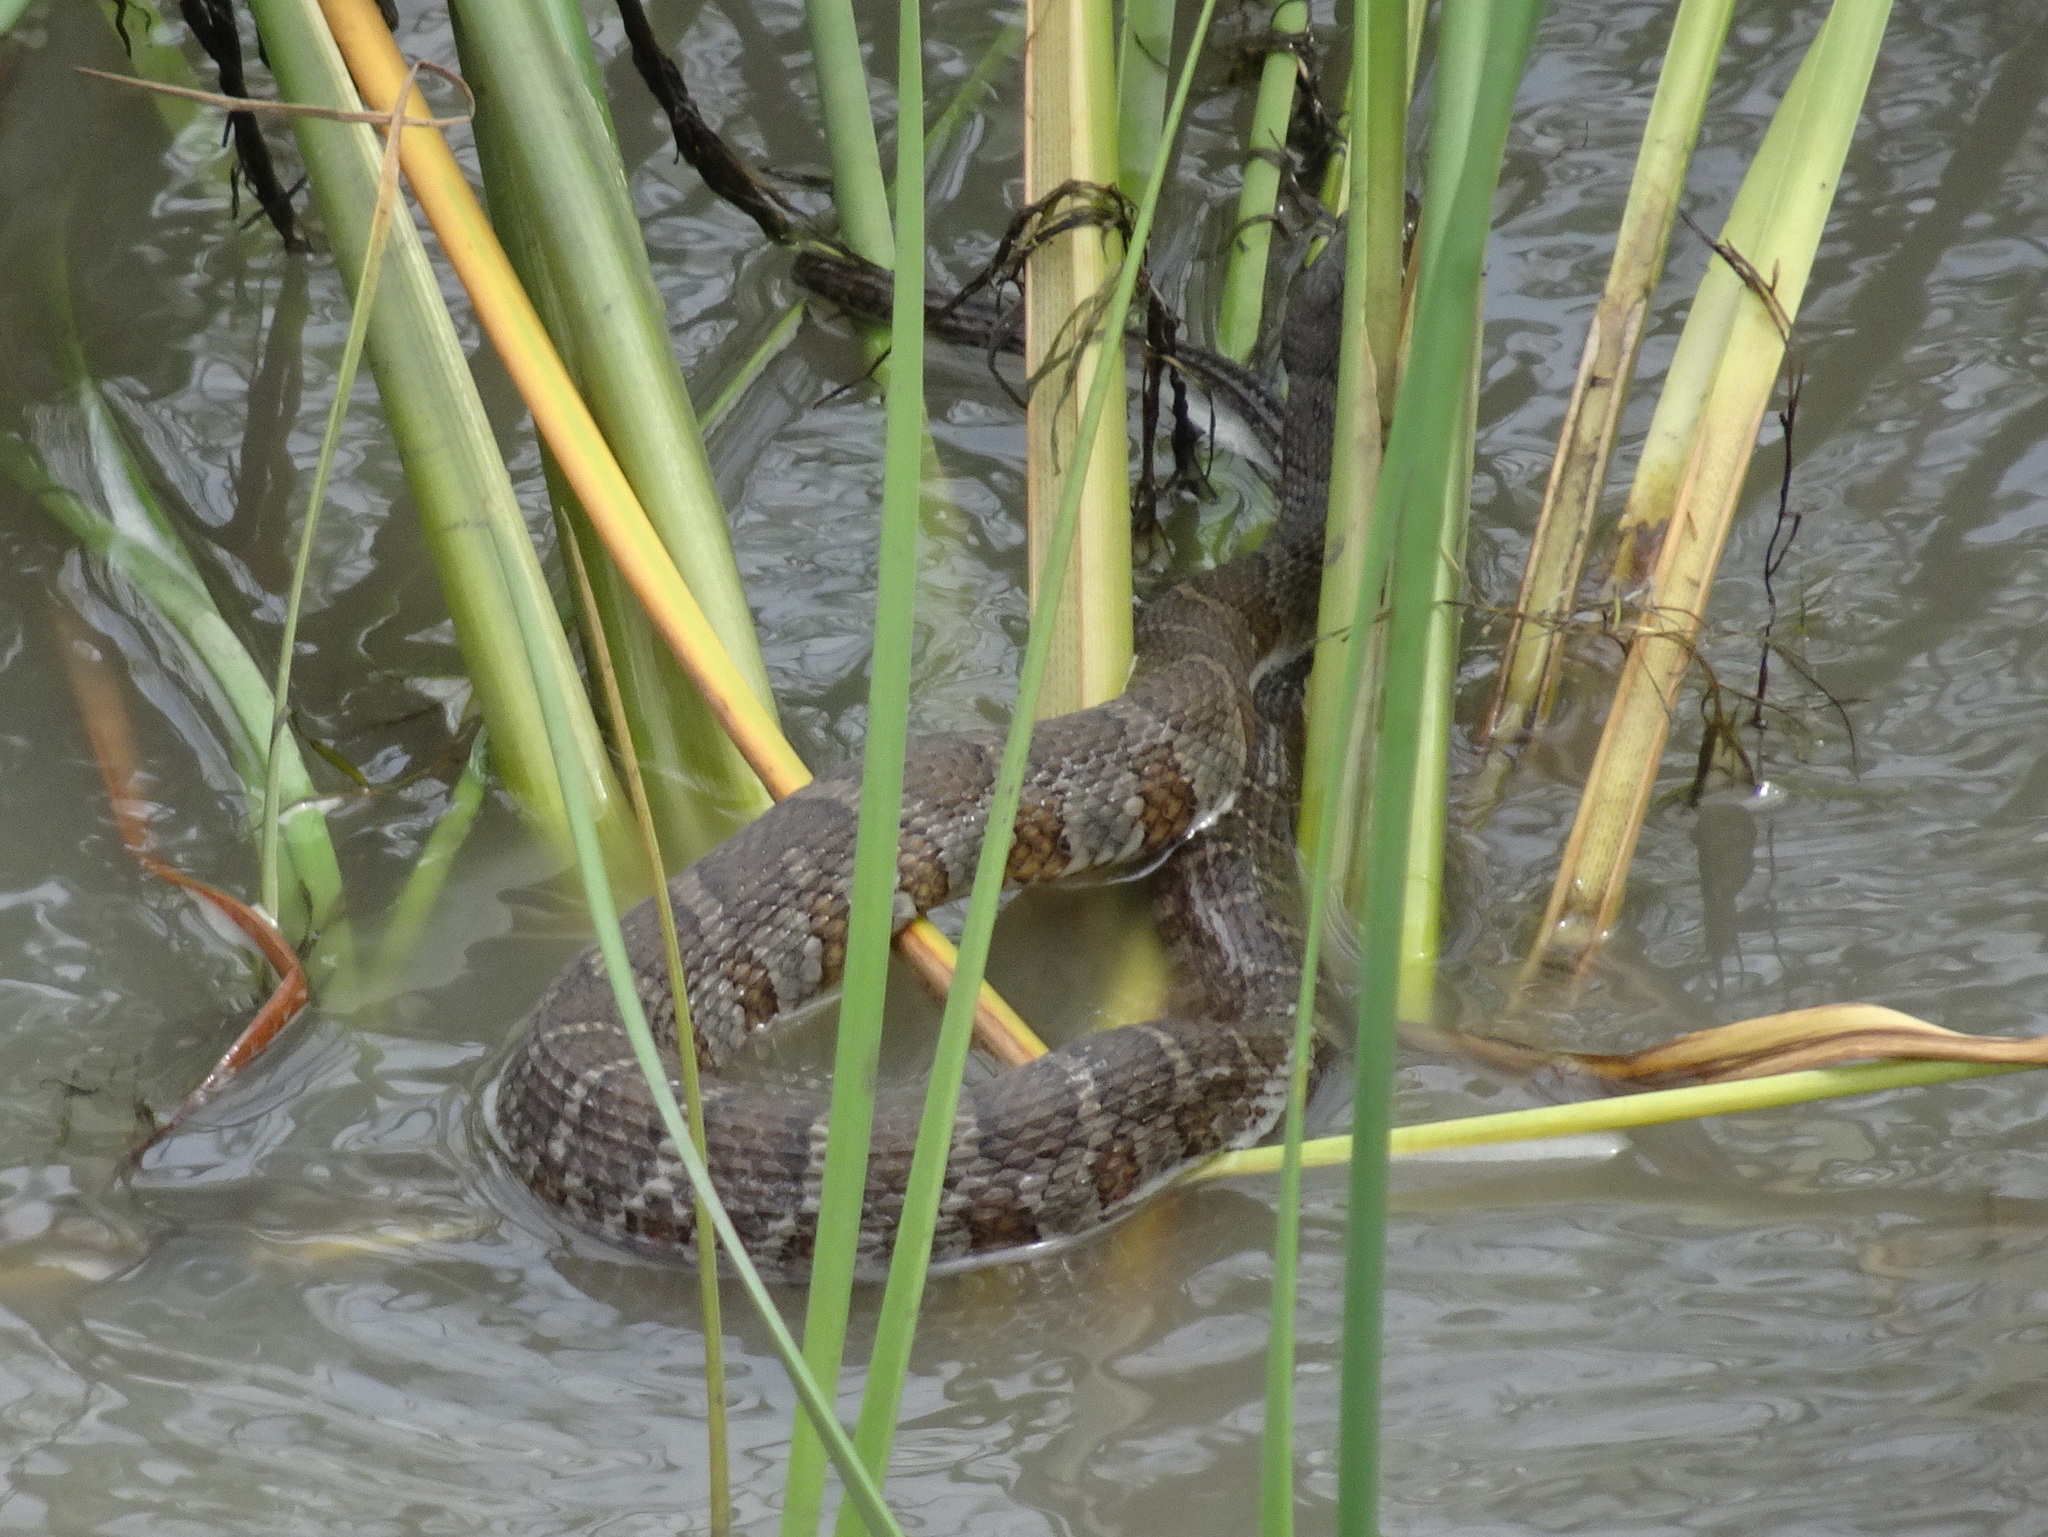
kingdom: Animalia
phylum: Chordata
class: Squamata
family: Colubridae
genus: Nerodia
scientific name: Nerodia sipedon
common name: Northern water snake
